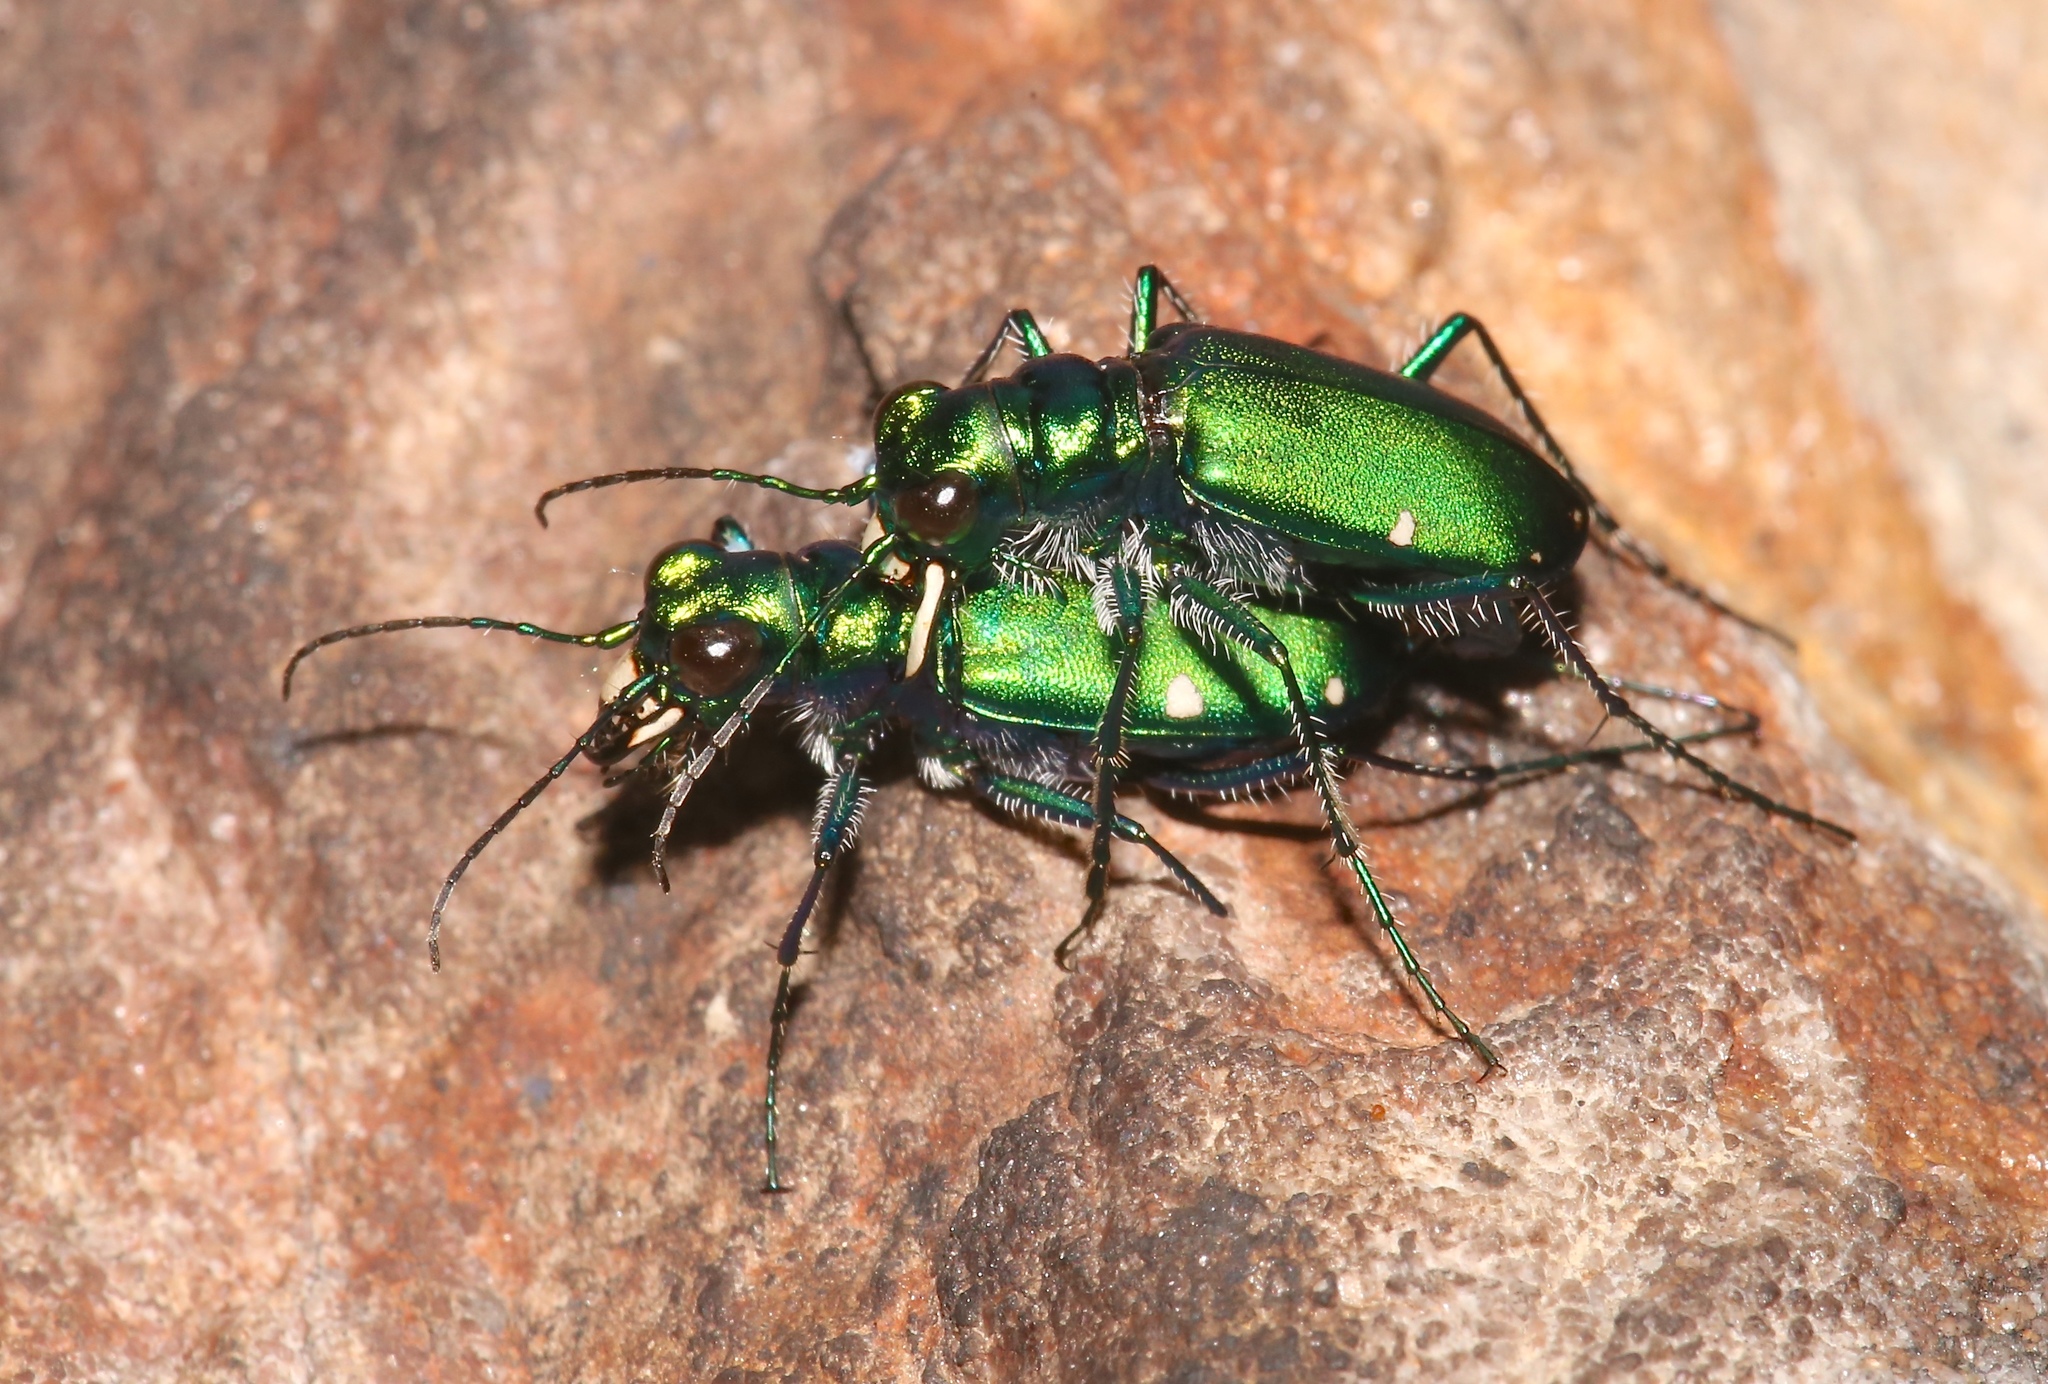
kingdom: Animalia
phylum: Arthropoda
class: Insecta
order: Coleoptera
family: Carabidae
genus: Cicindela
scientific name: Cicindela sexguttata
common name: Six-spotted tiger beetle
